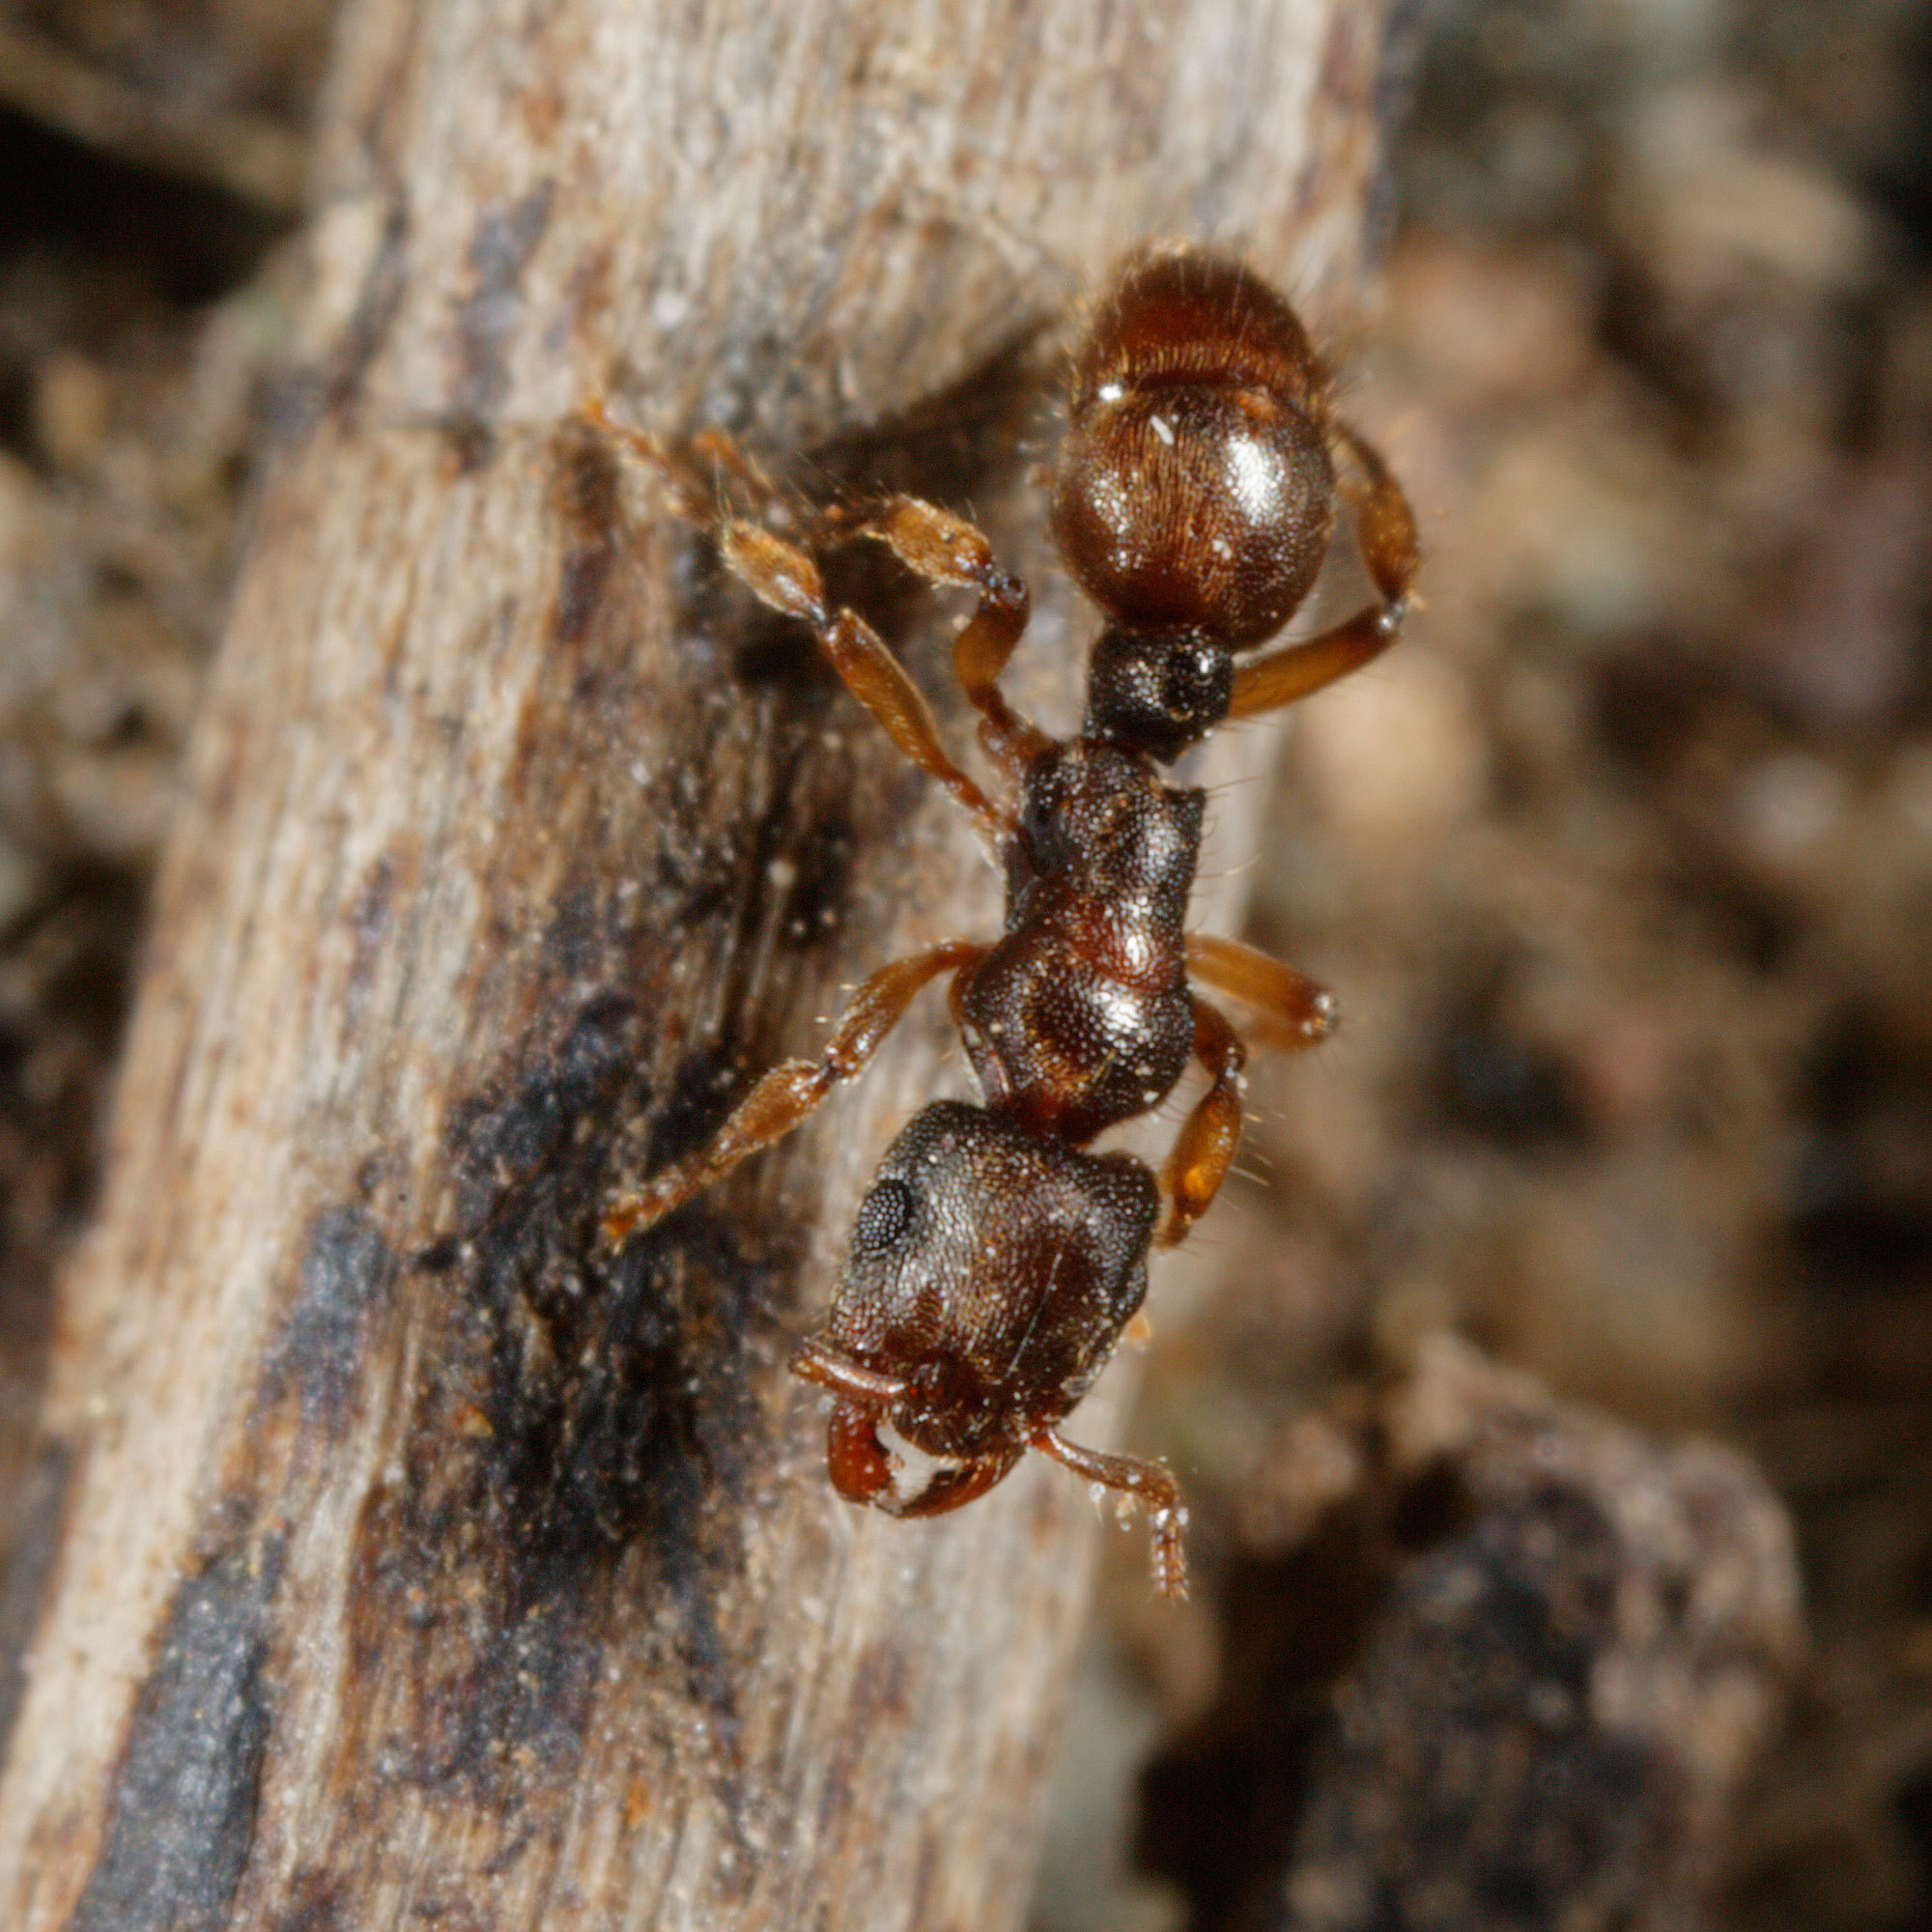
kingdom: Animalia
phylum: Arthropoda
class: Insecta
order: Hymenoptera
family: Formicidae
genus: Heteroponera
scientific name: Heteroponera brounii
